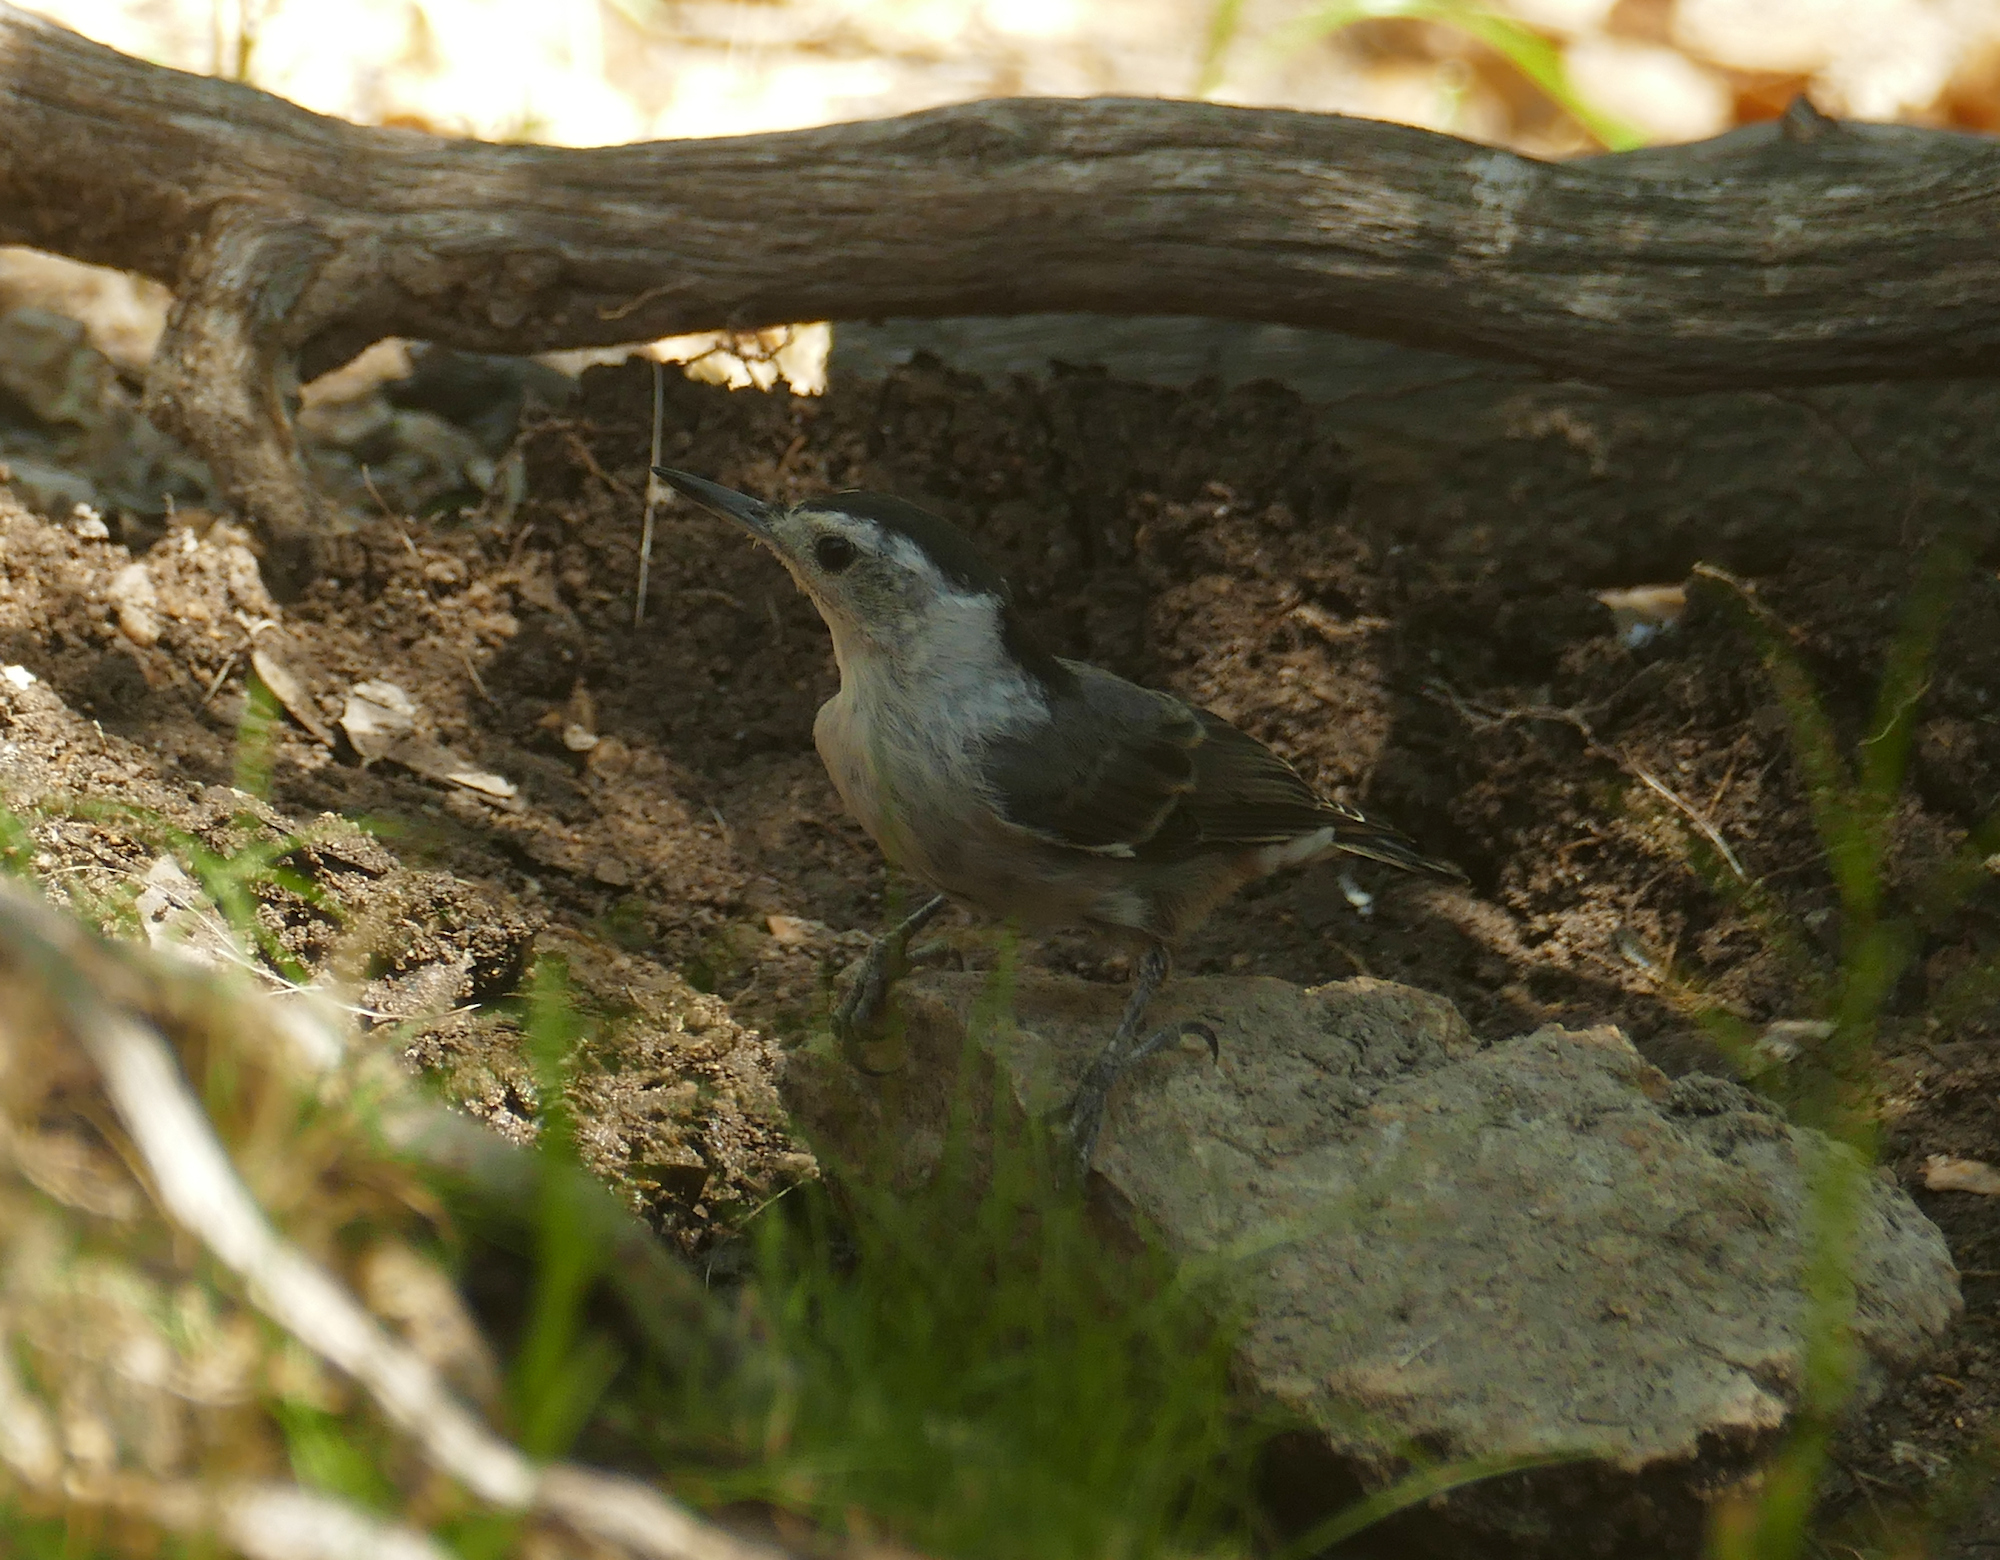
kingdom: Animalia
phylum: Chordata
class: Aves
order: Passeriformes
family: Sittidae
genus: Sitta
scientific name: Sitta carolinensis
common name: White-breasted nuthatch
